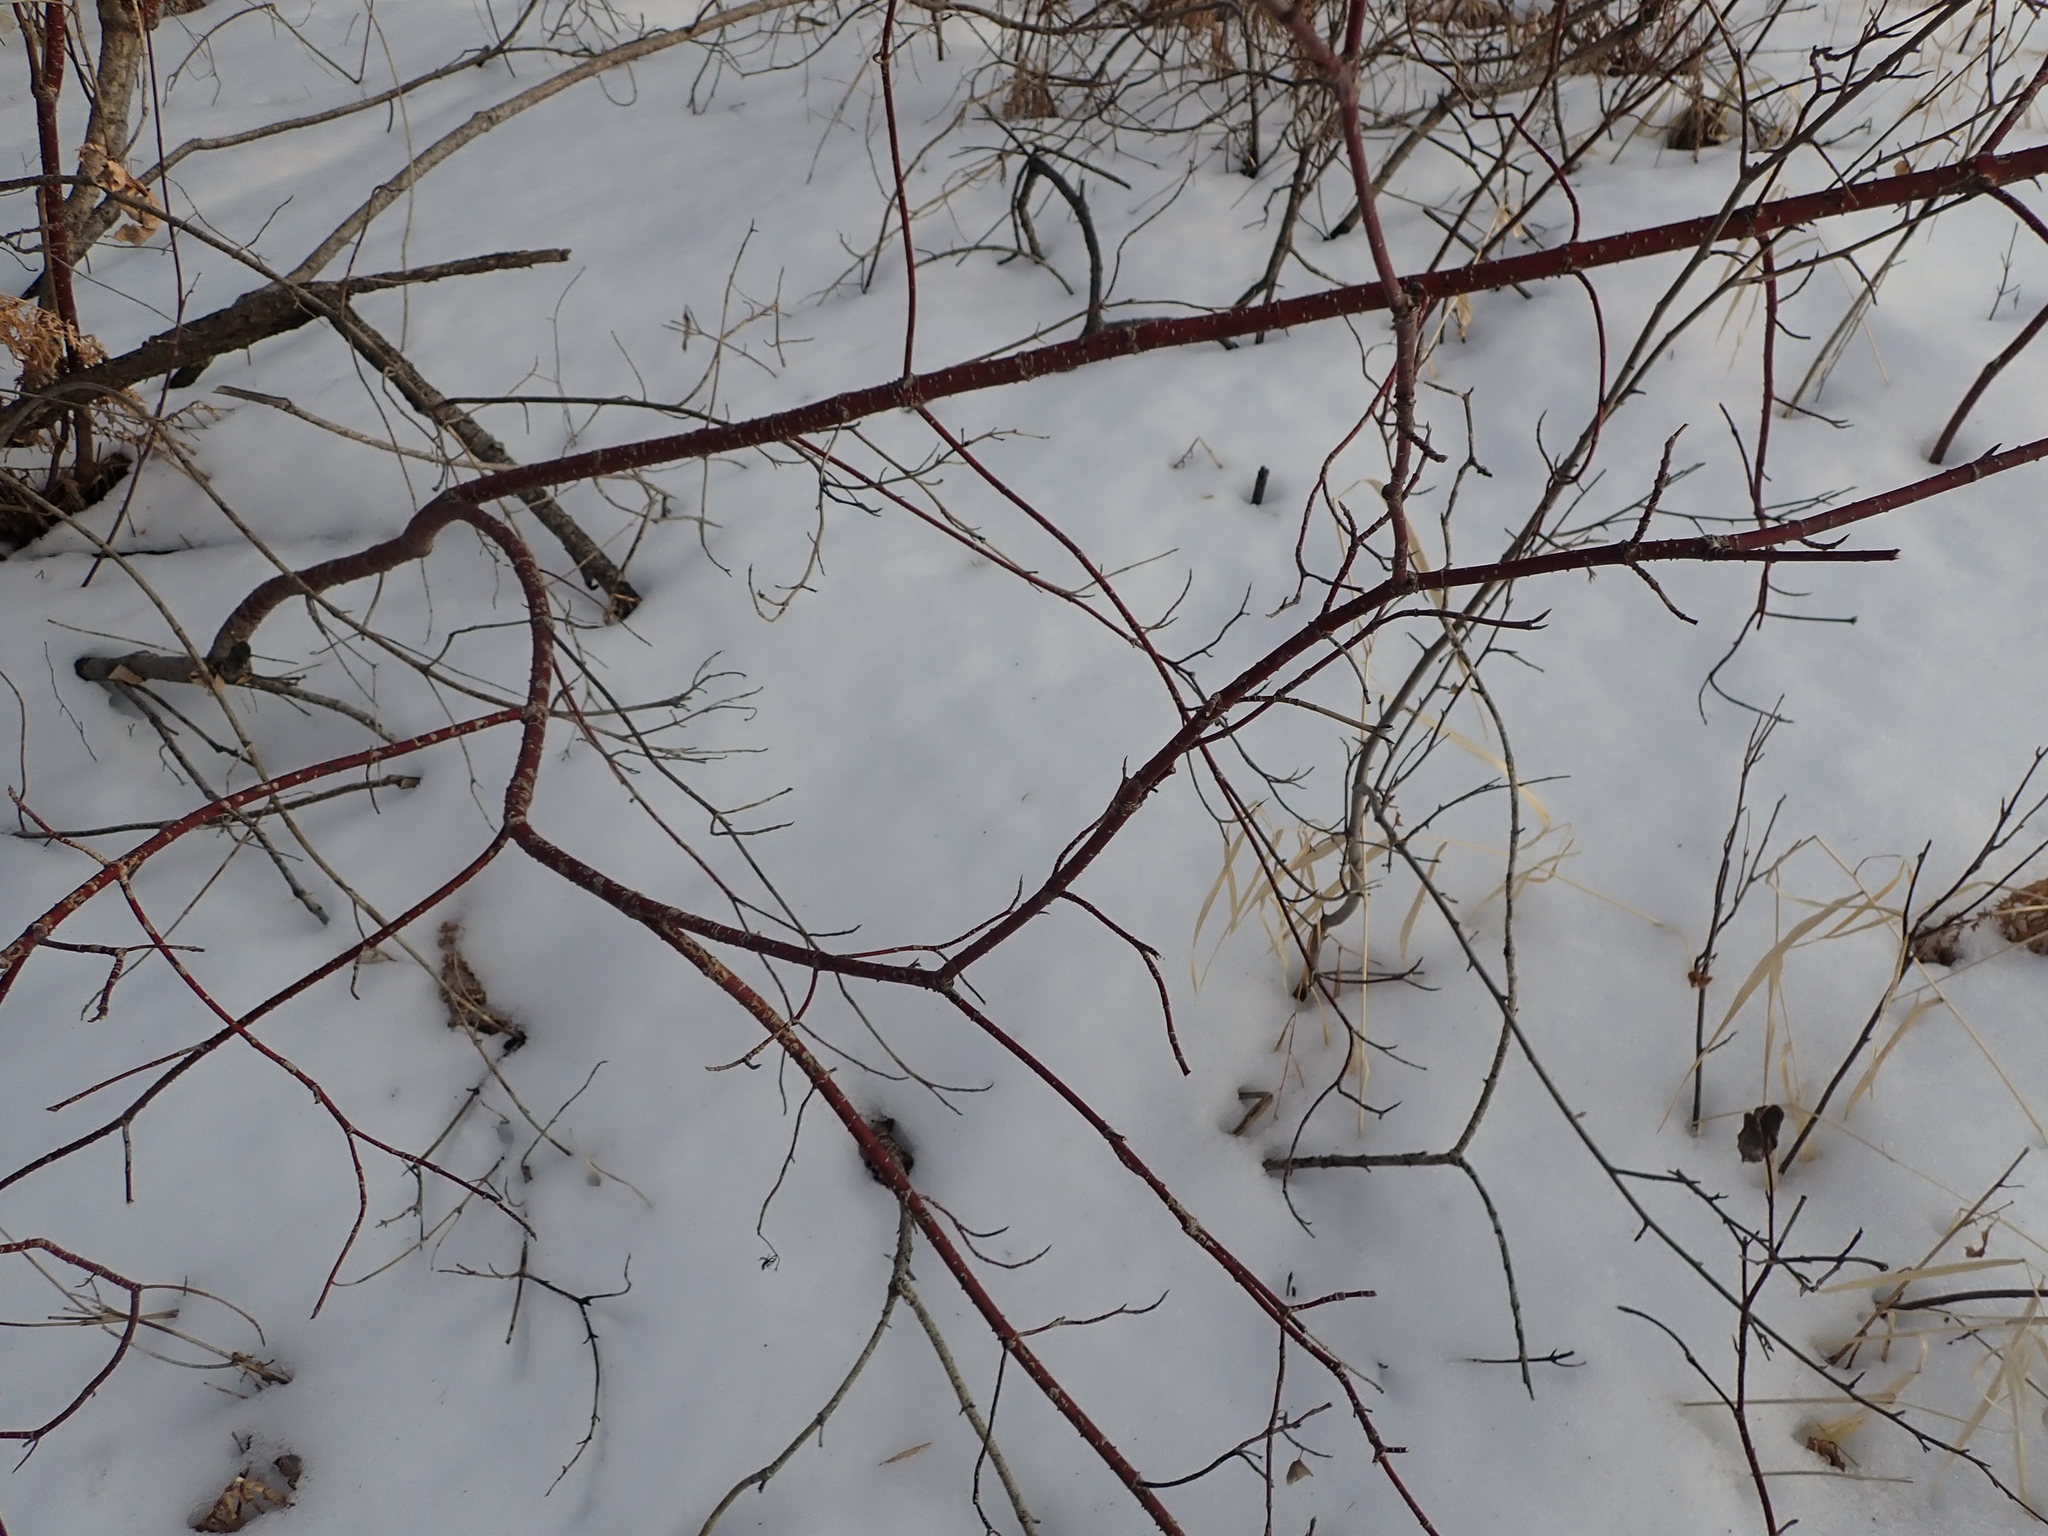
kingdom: Plantae
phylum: Tracheophyta
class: Magnoliopsida
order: Cornales
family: Cornaceae
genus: Cornus
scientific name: Cornus sericea
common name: Red-osier dogwood
